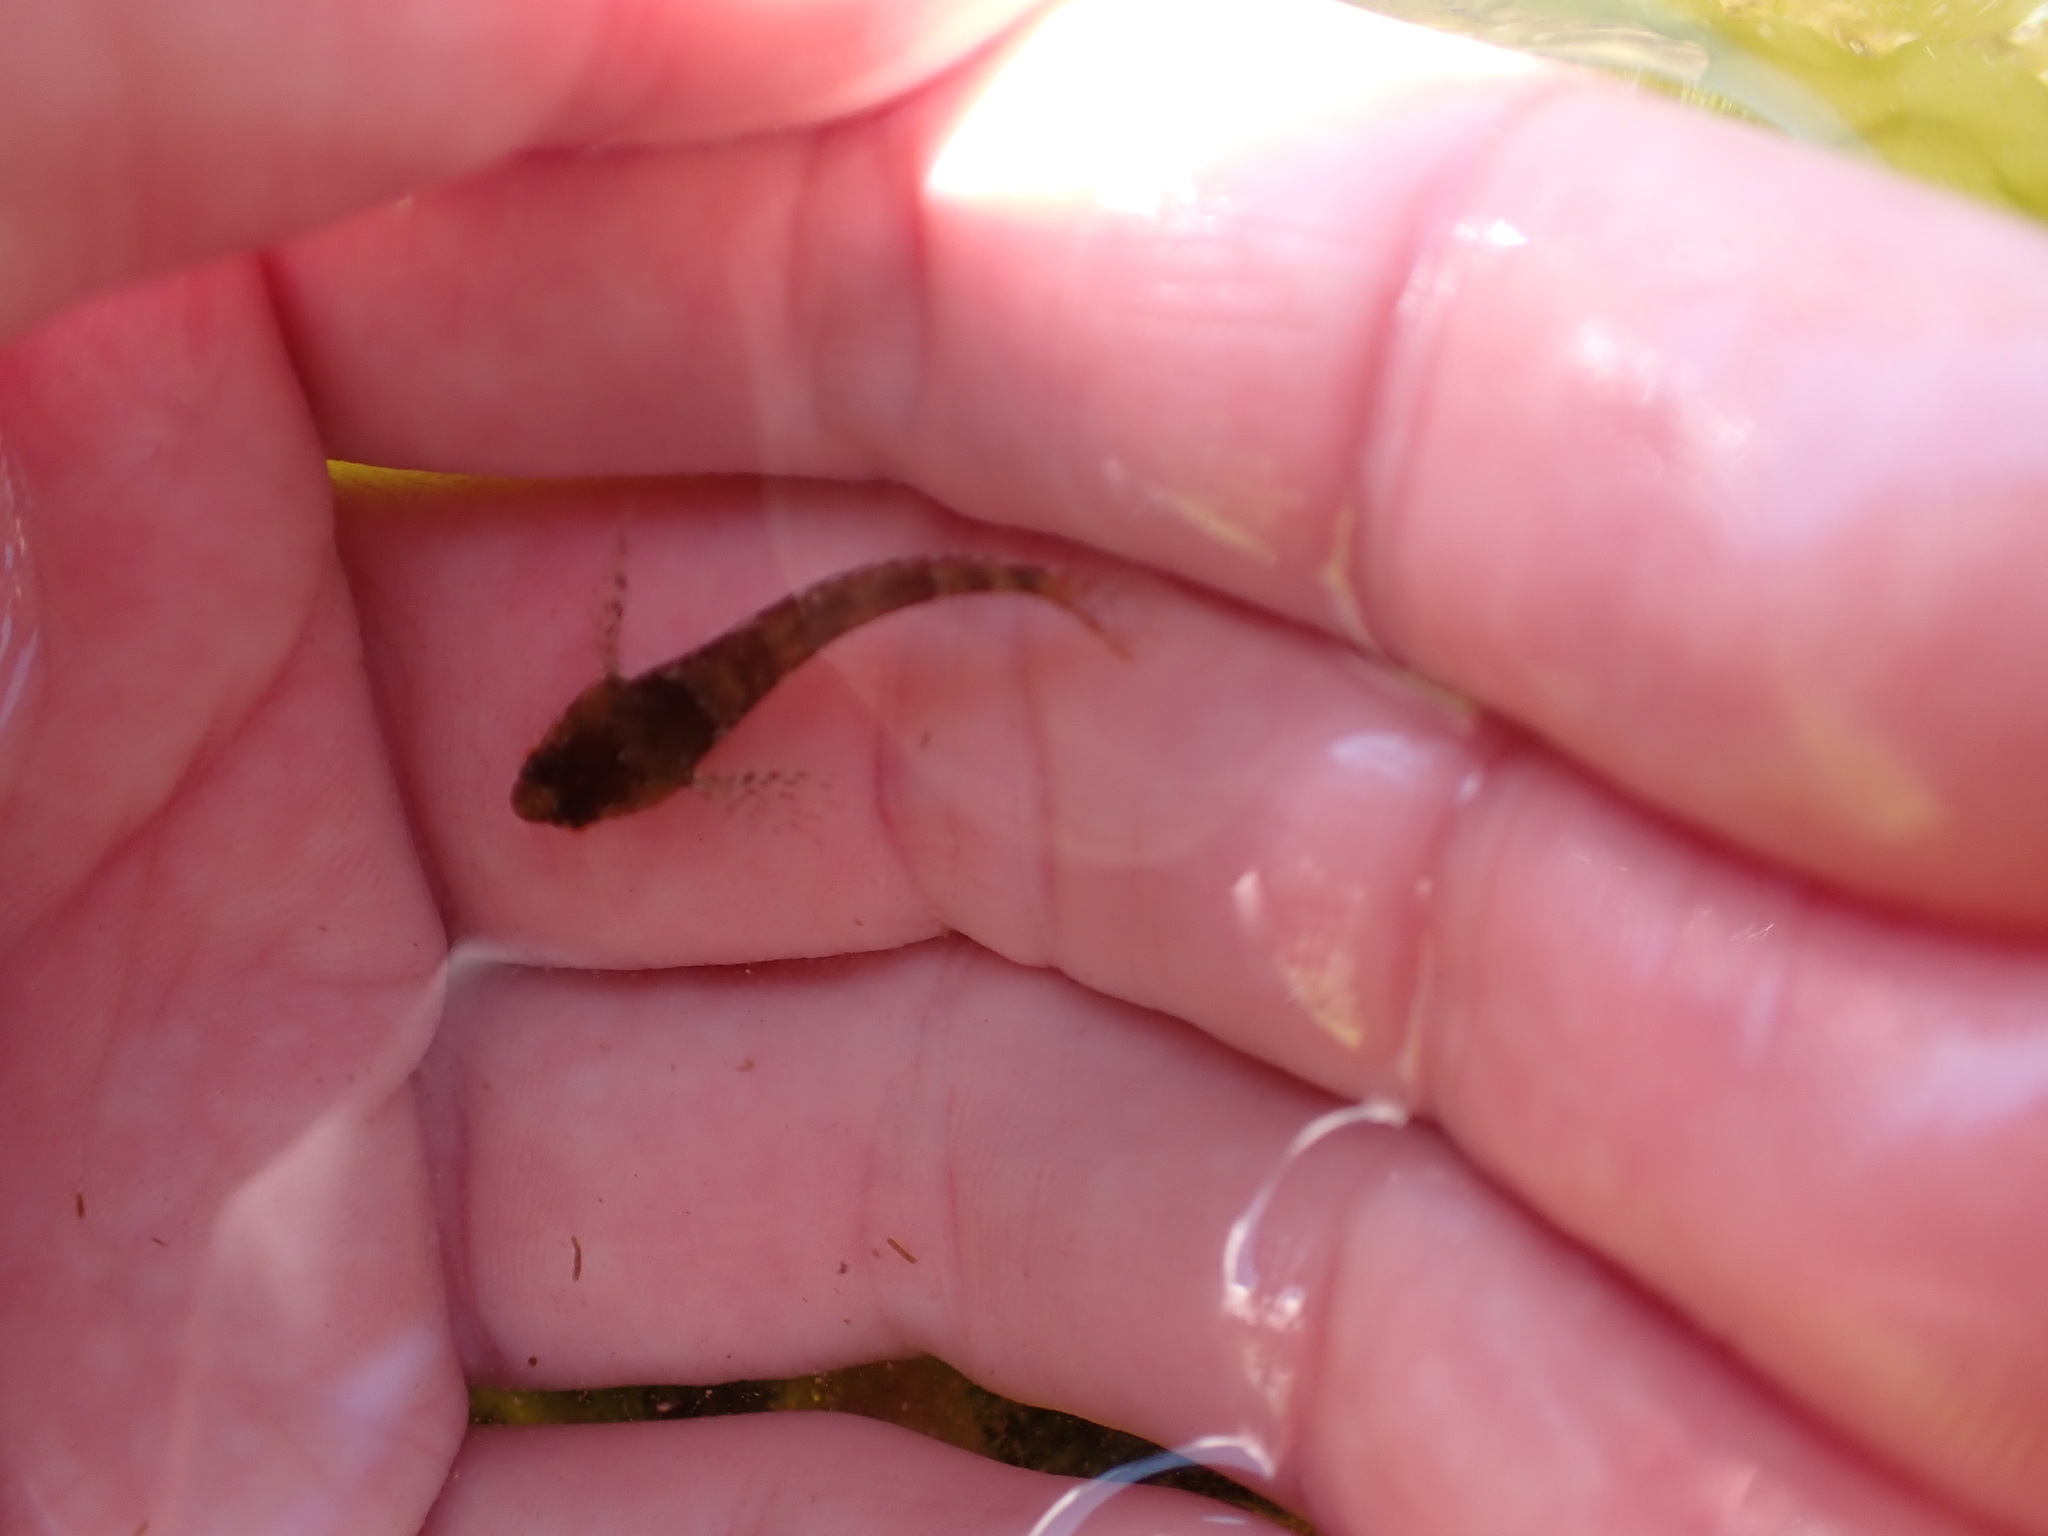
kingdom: Animalia
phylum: Chordata
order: Scorpaeniformes
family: Cottidae
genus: Oligocottus
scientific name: Oligocottus maculosus
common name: Tidepool sculpin
